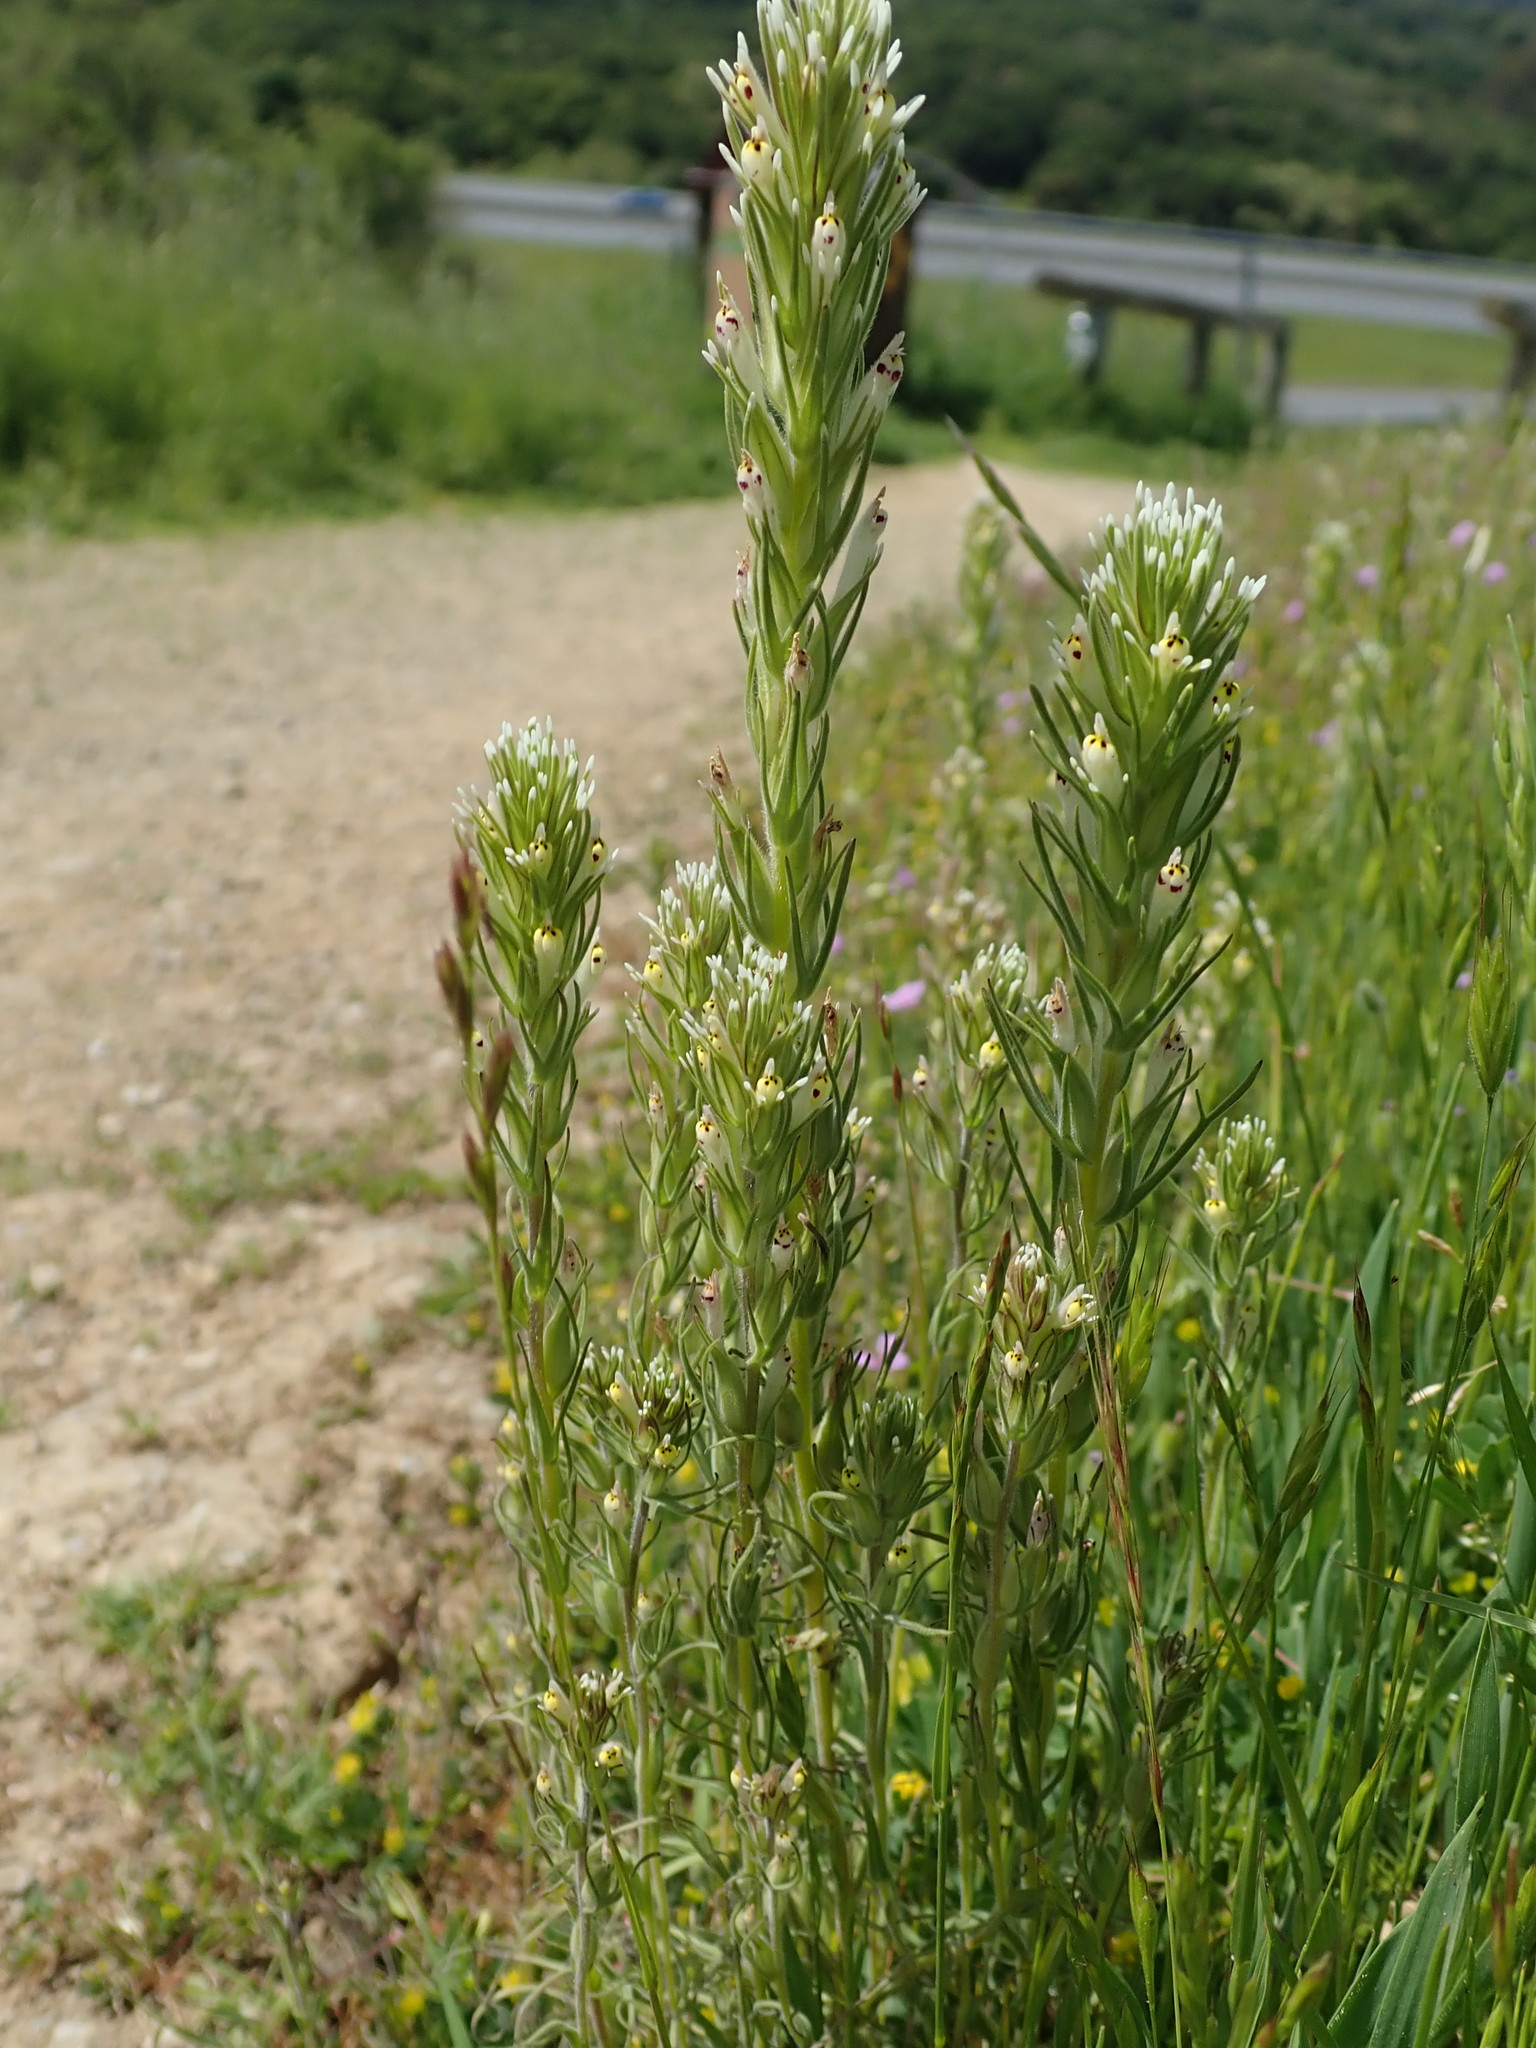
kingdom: Plantae
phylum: Tracheophyta
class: Magnoliopsida
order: Lamiales
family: Orobanchaceae
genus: Castilleja
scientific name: Castilleja attenuata
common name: Valley tassels
